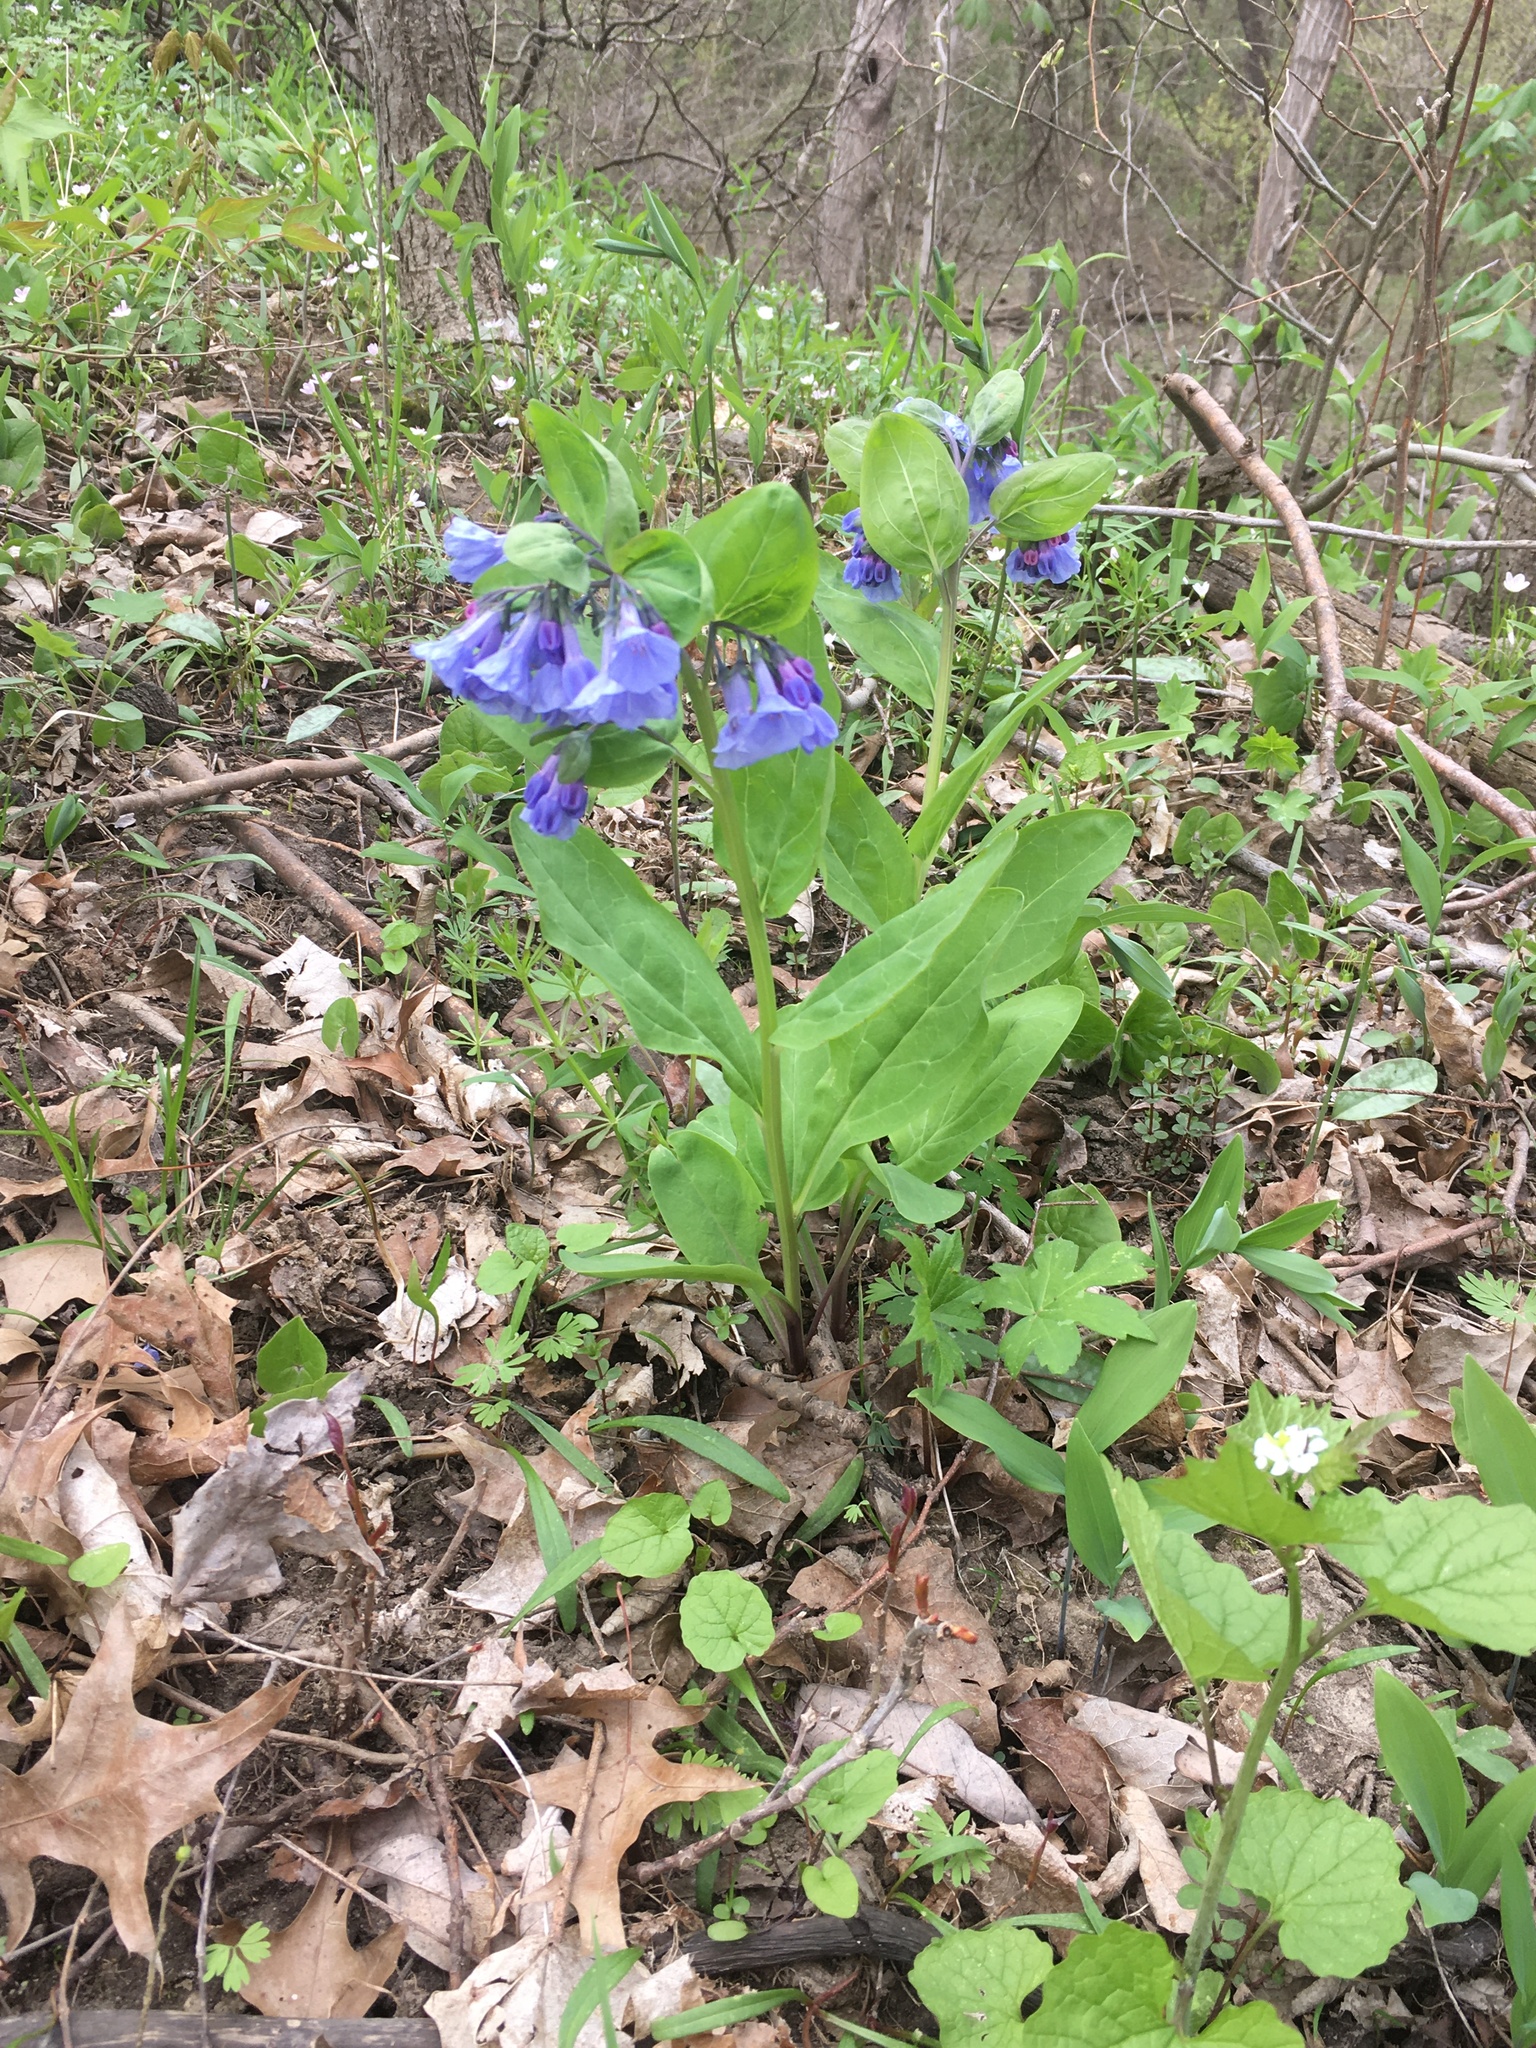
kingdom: Plantae
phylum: Tracheophyta
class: Magnoliopsida
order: Boraginales
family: Boraginaceae
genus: Mertensia
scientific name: Mertensia virginica
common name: Virginia bluebells
